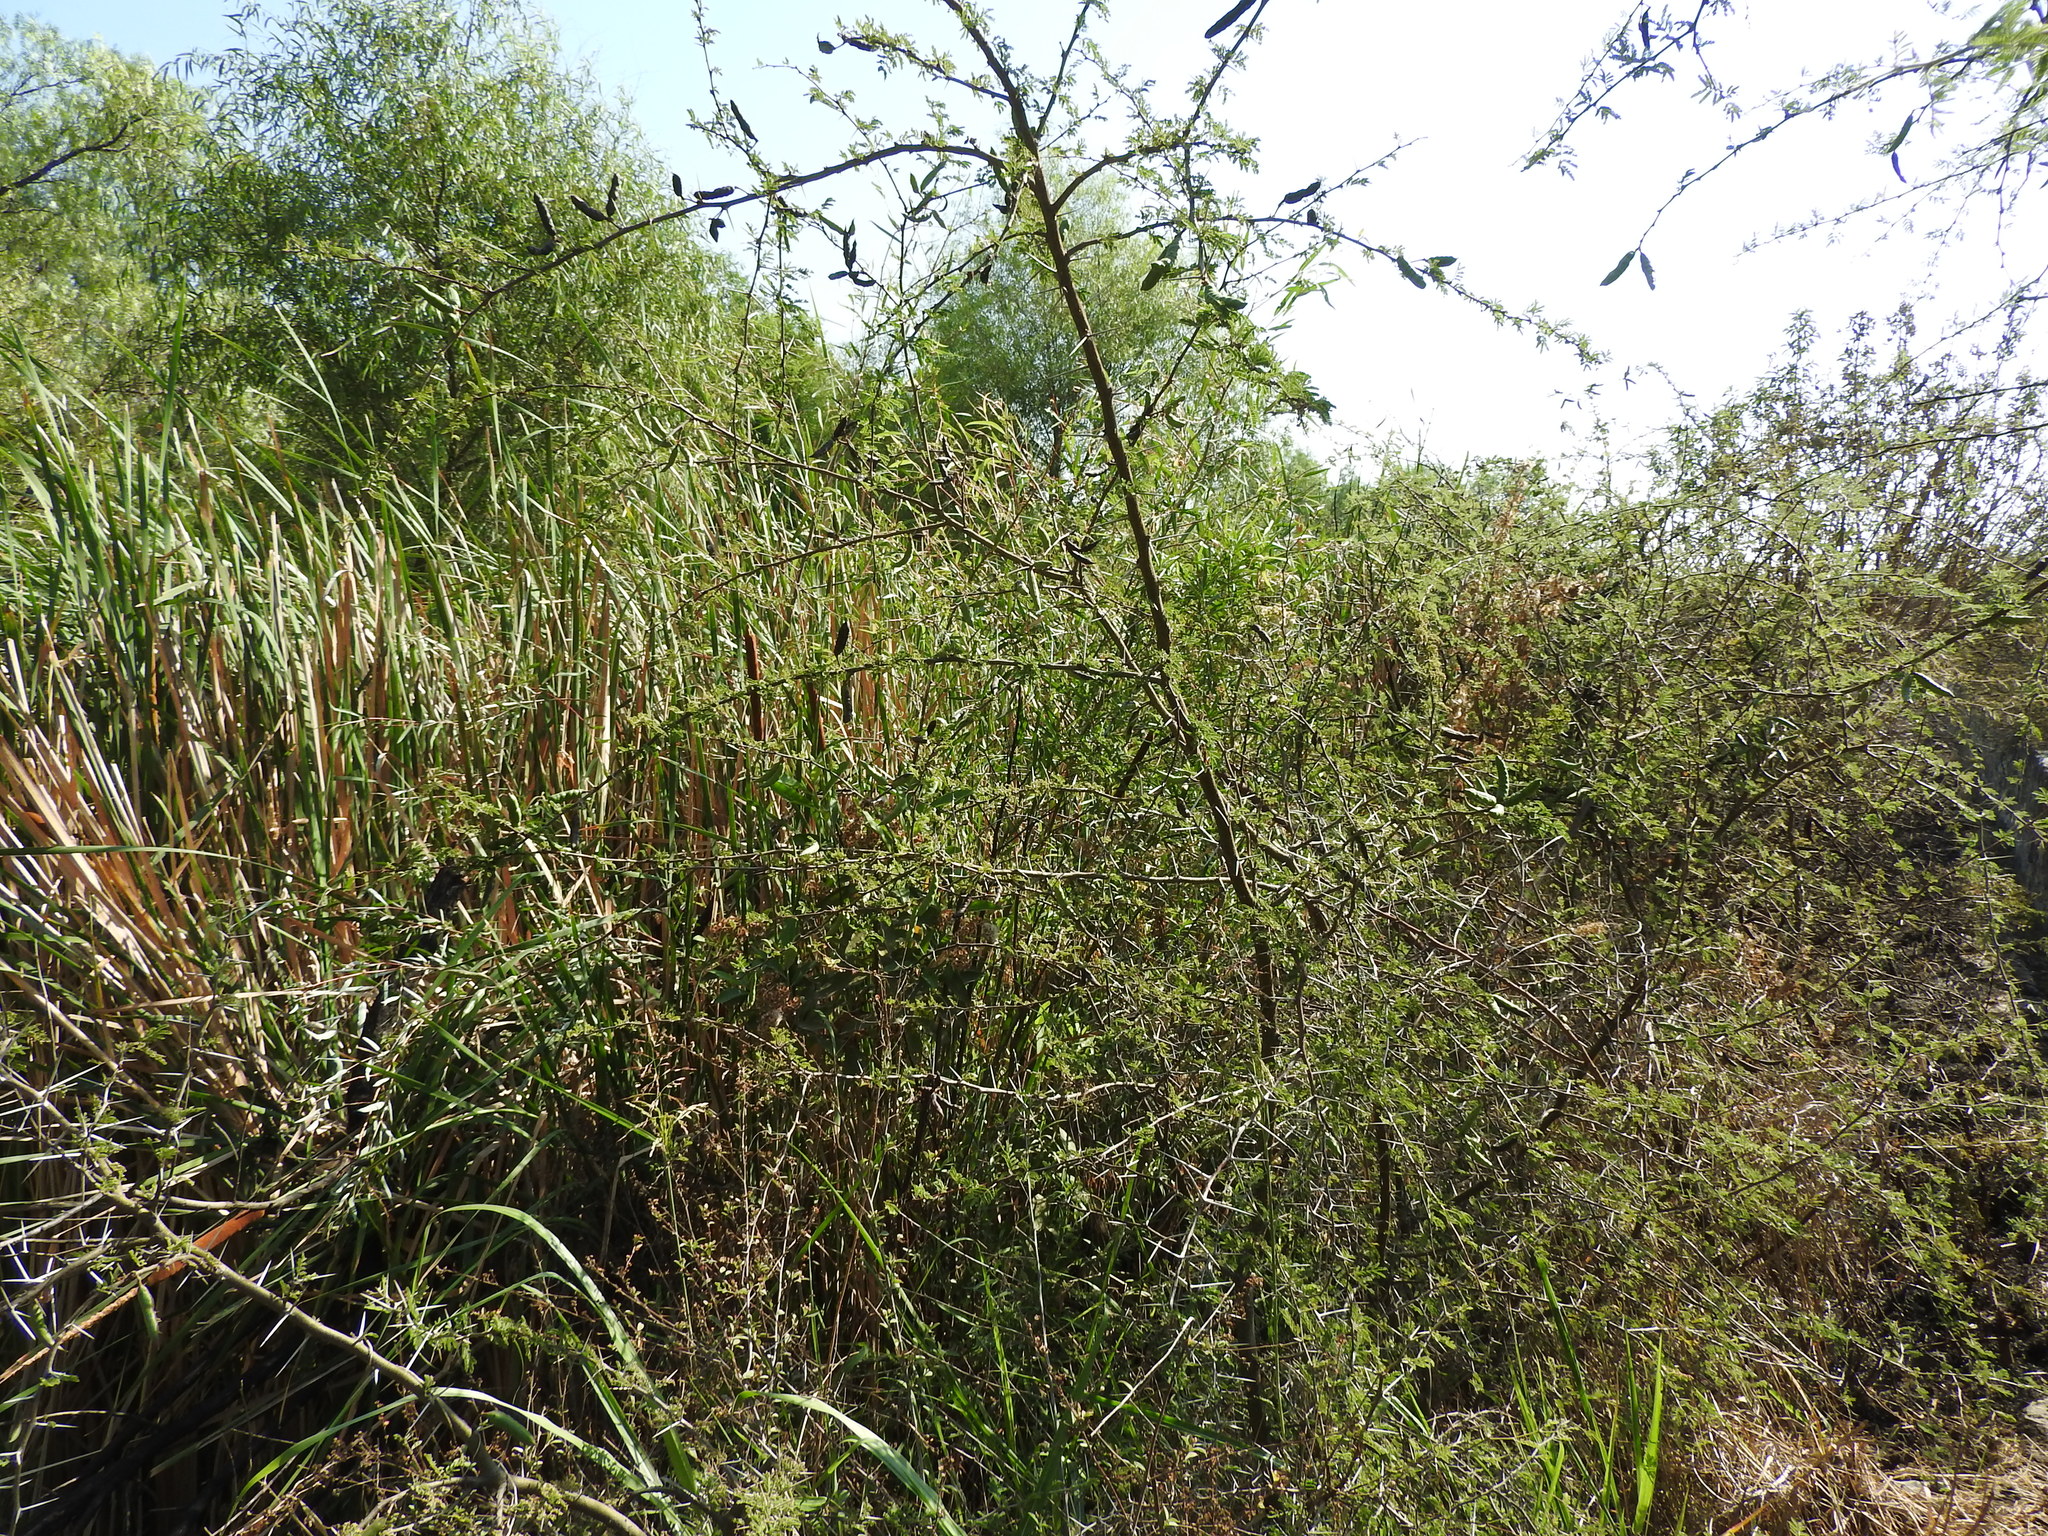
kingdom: Plantae
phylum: Tracheophyta
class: Magnoliopsida
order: Fabales
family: Fabaceae
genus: Vachellia
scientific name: Vachellia farnesiana
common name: Sweet acacia
